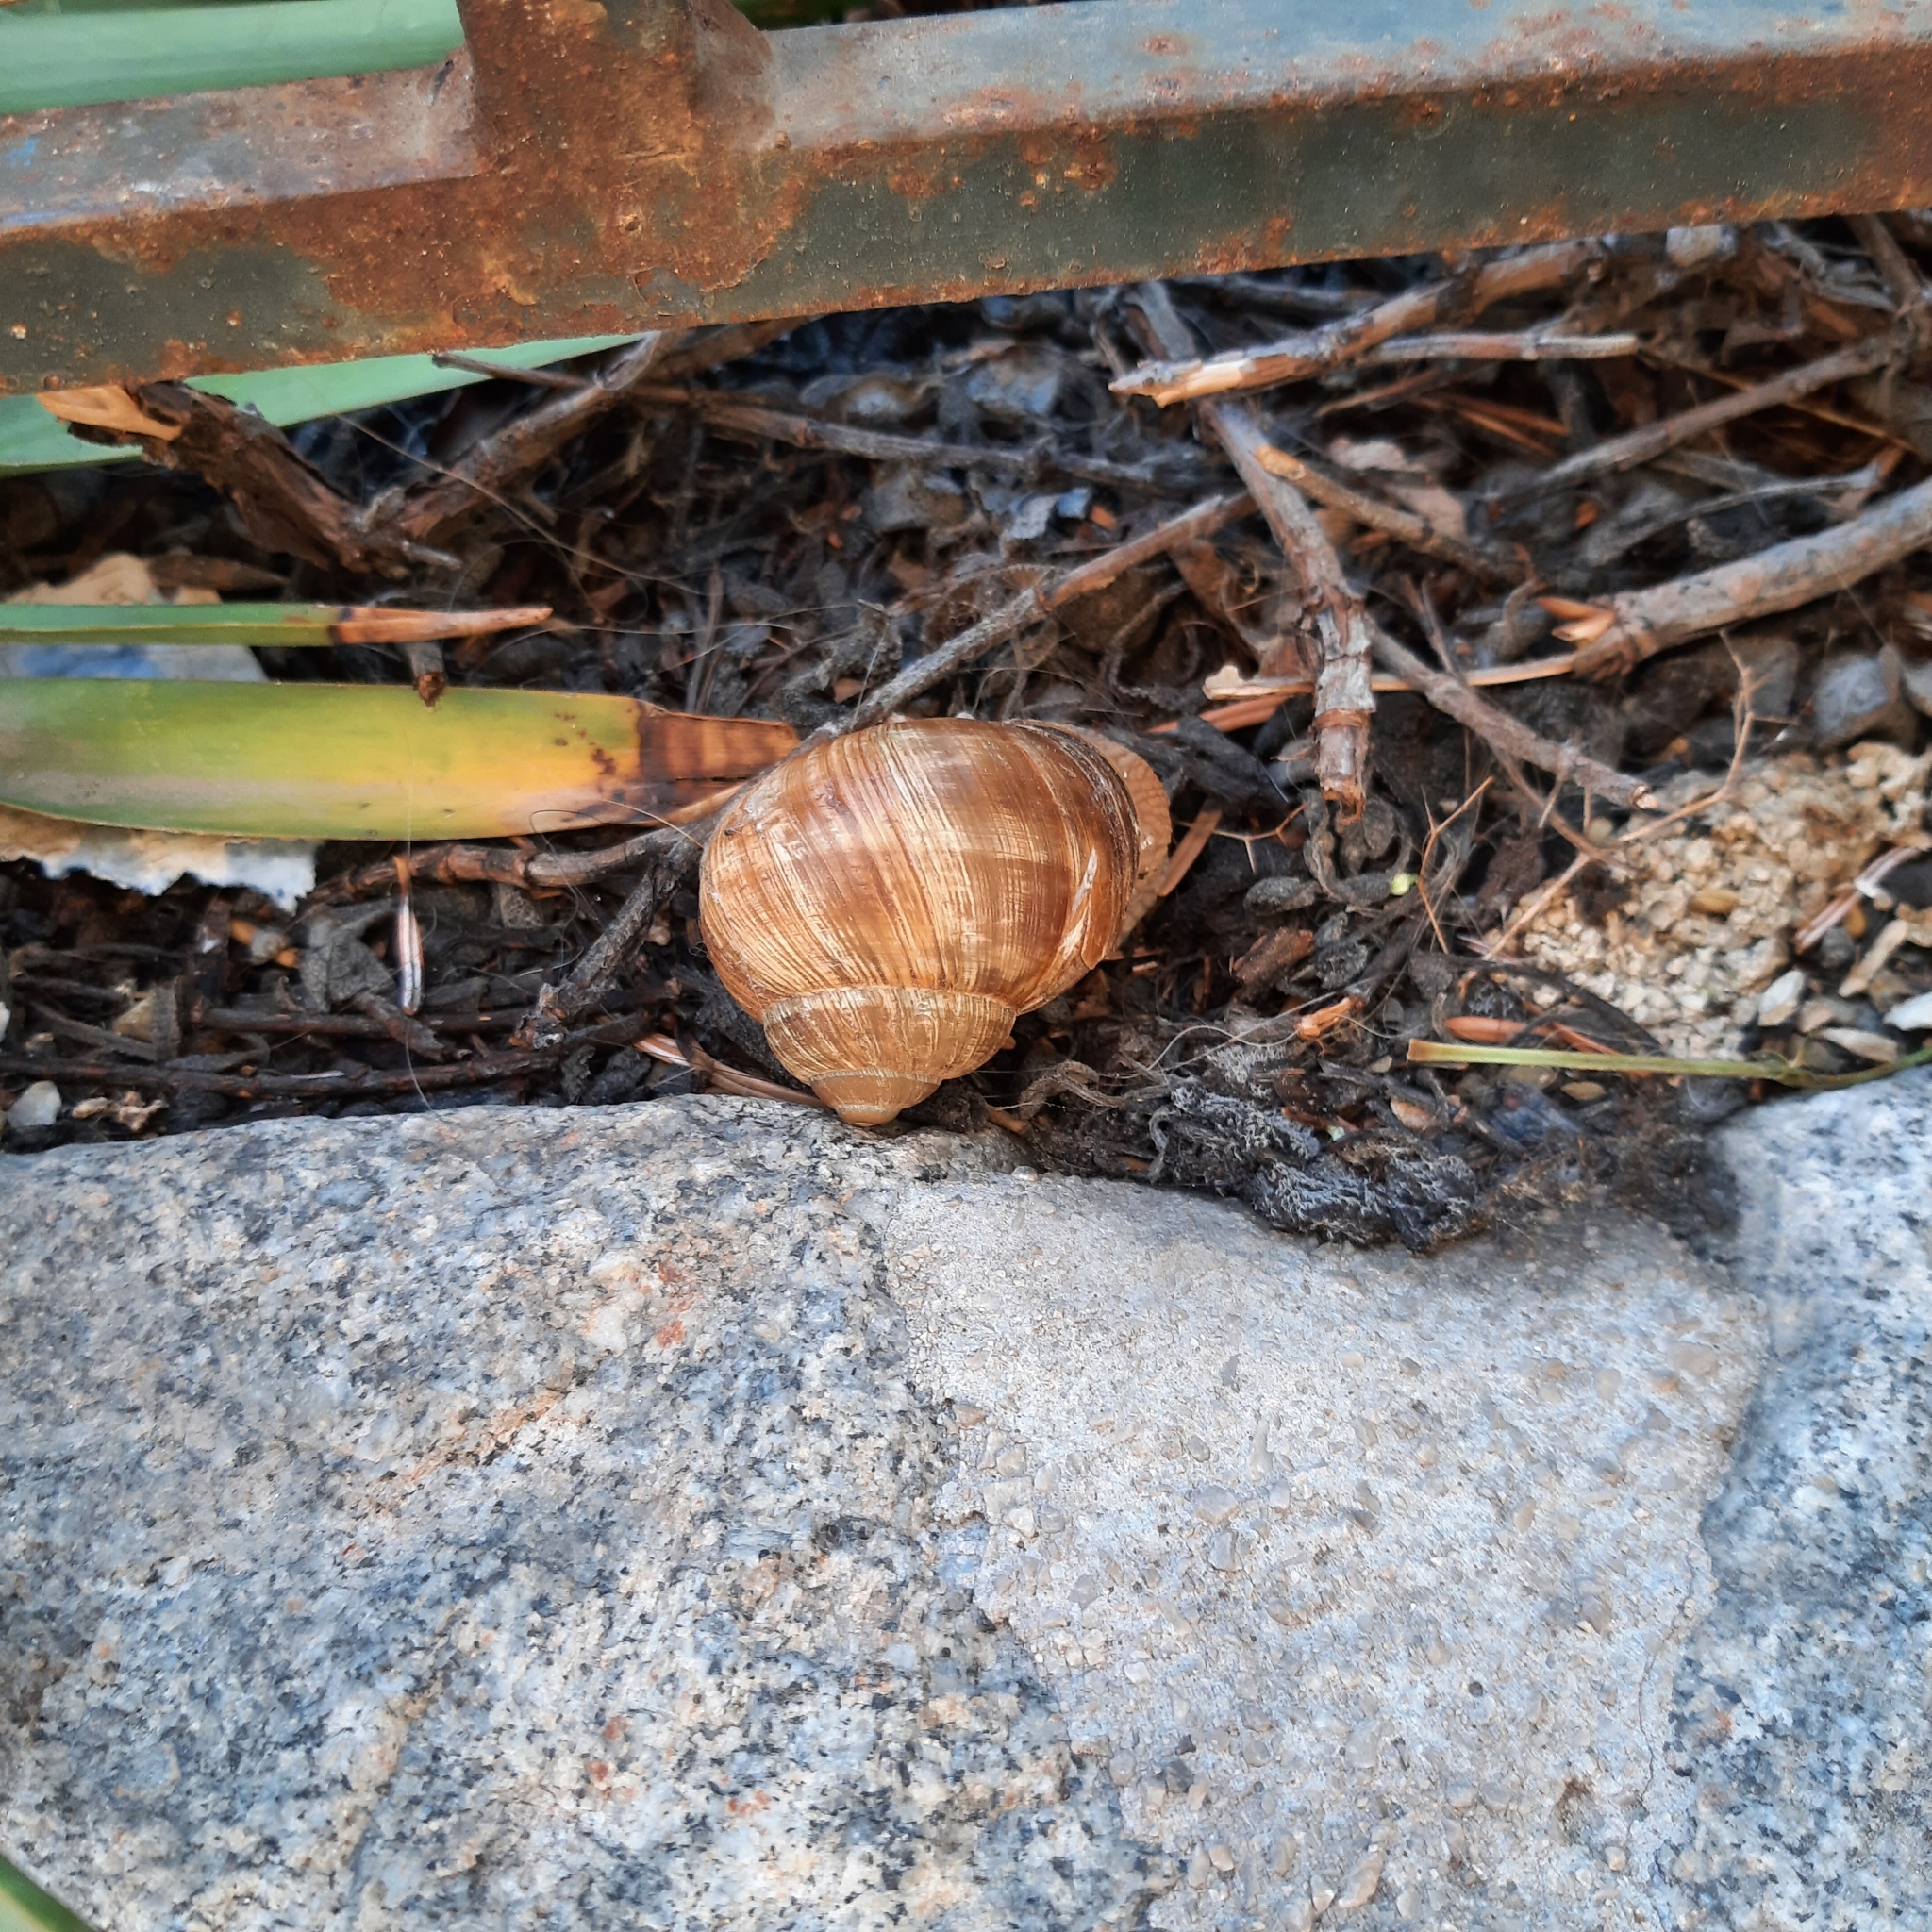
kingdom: Animalia
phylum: Mollusca
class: Gastropoda
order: Stylommatophora
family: Helicidae
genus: Helix
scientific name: Helix pomatia
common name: Roman snail
